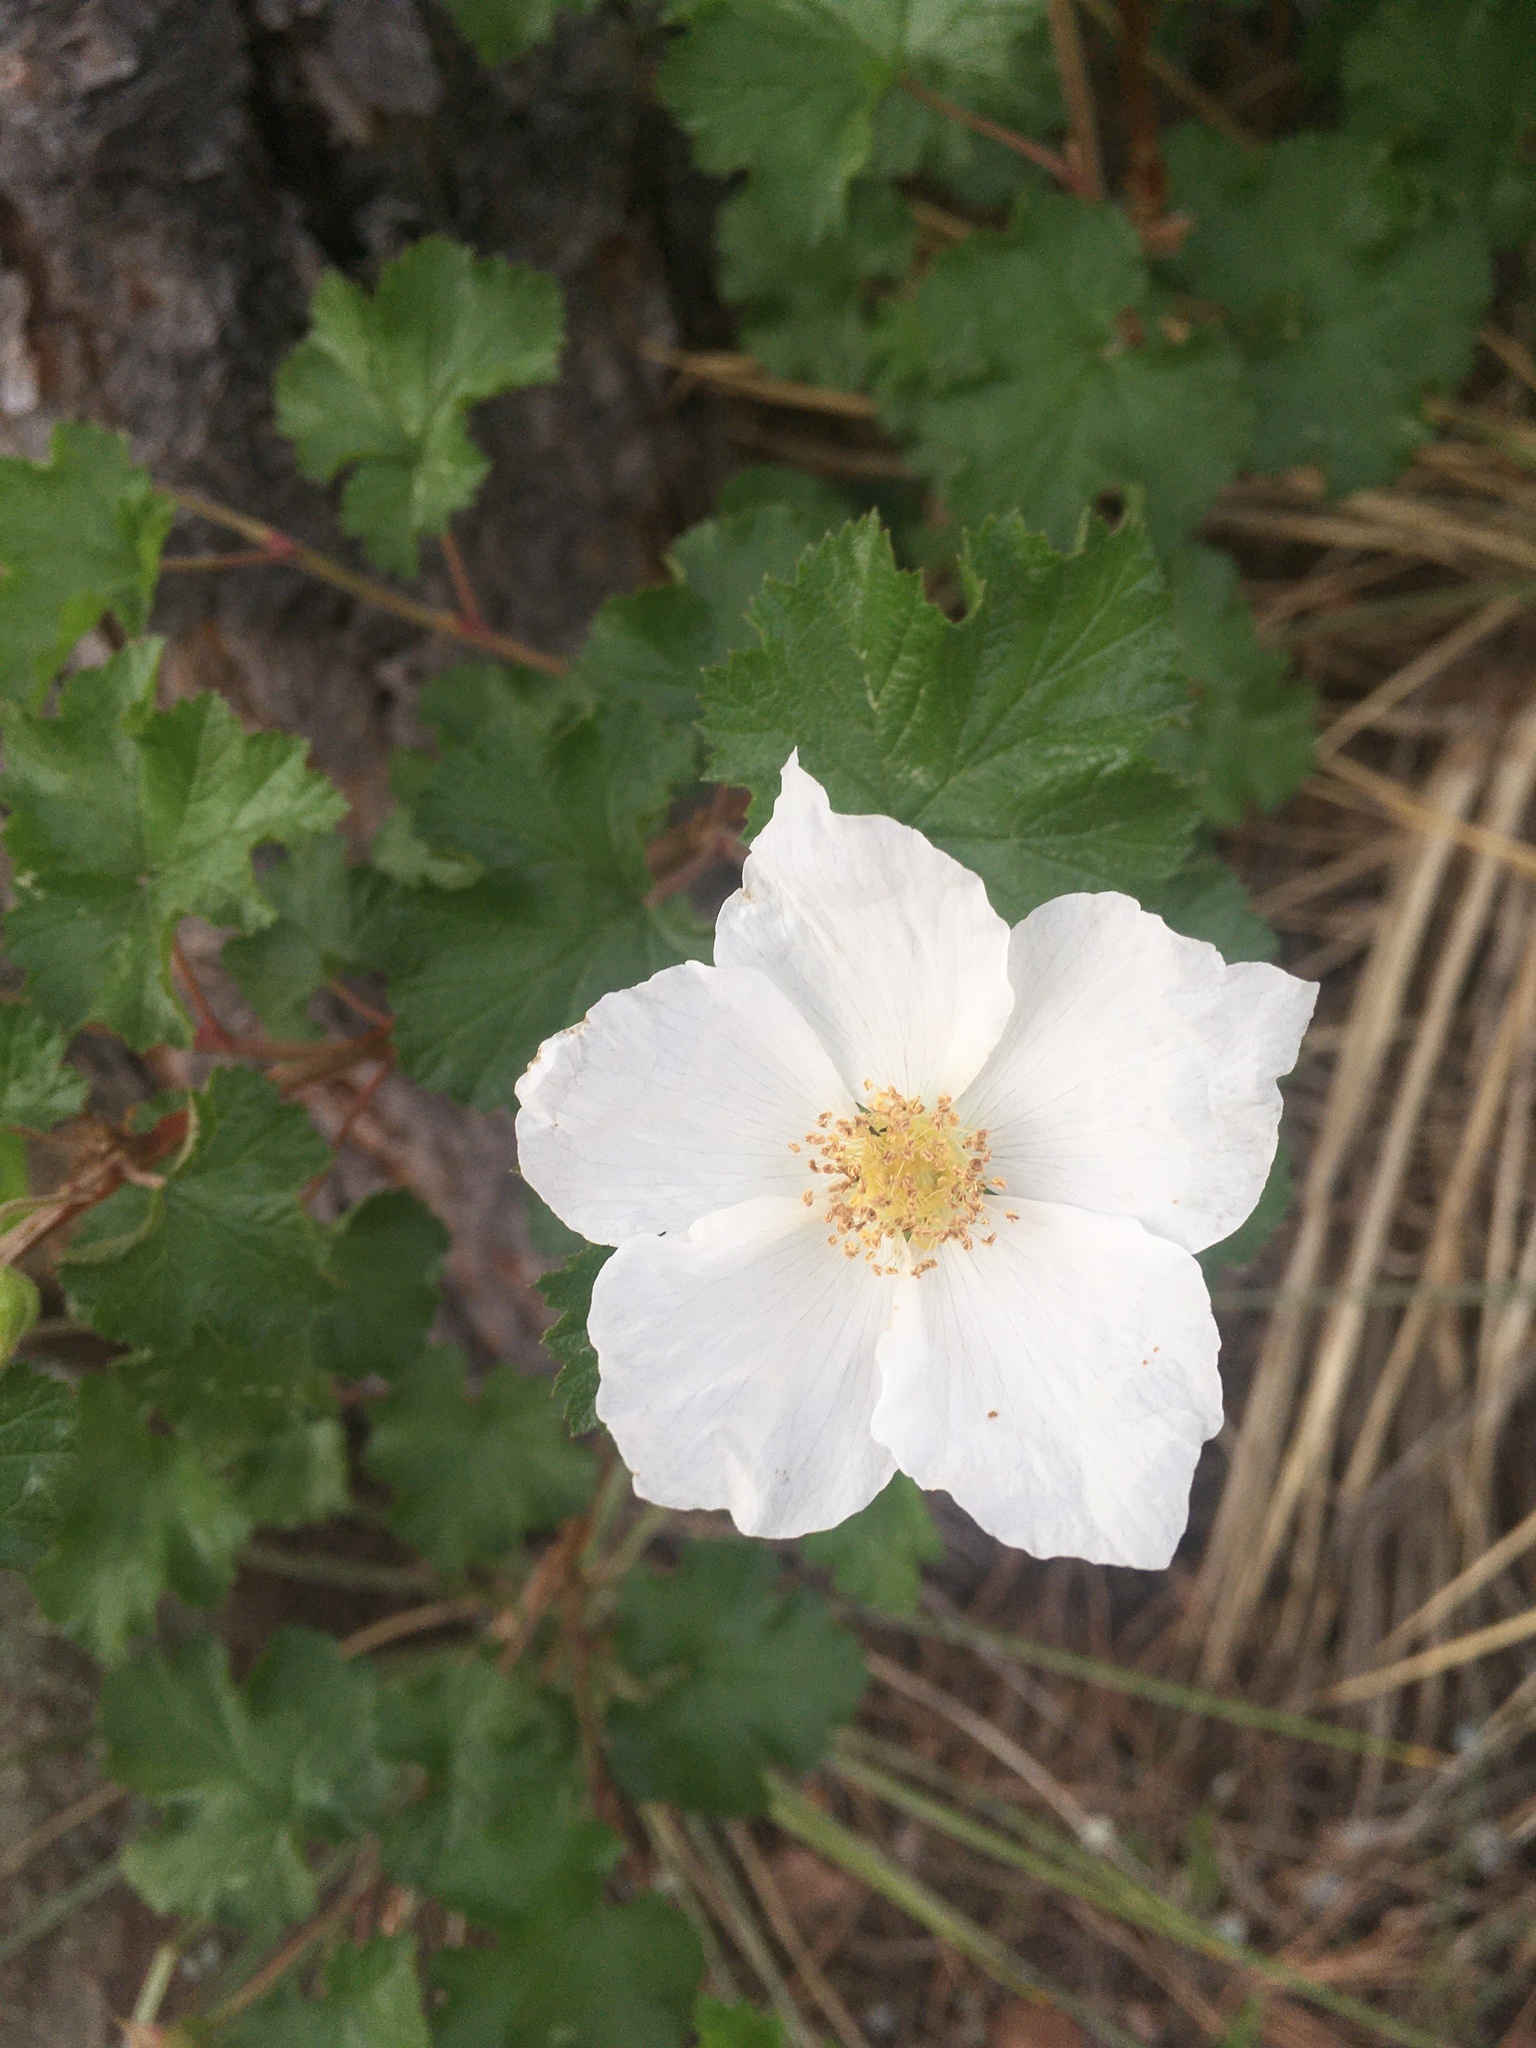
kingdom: Plantae
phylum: Tracheophyta
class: Magnoliopsida
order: Rosales
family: Rosaceae
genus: Rubus
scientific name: Rubus deliciosus
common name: Rocky mountain raspberry
